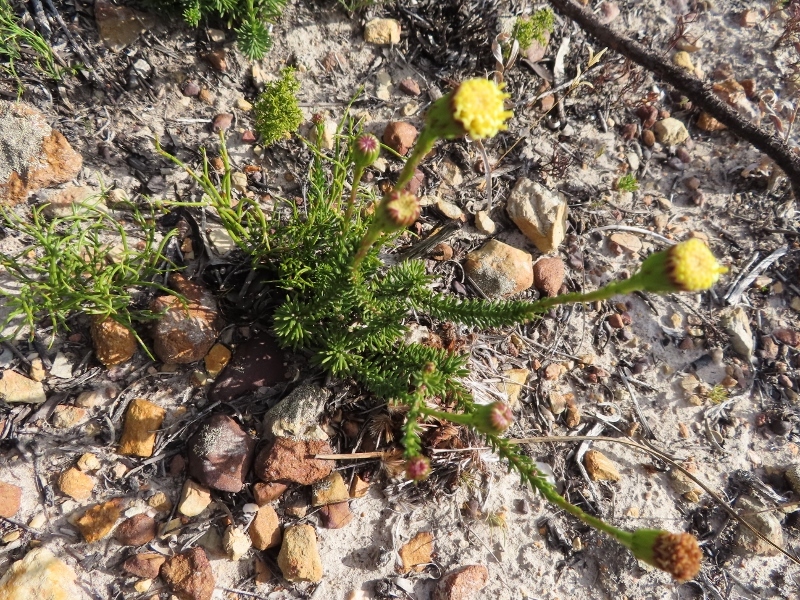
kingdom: Plantae
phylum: Tracheophyta
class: Magnoliopsida
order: Asterales
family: Asteraceae
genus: Senecio
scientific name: Senecio triqueter
